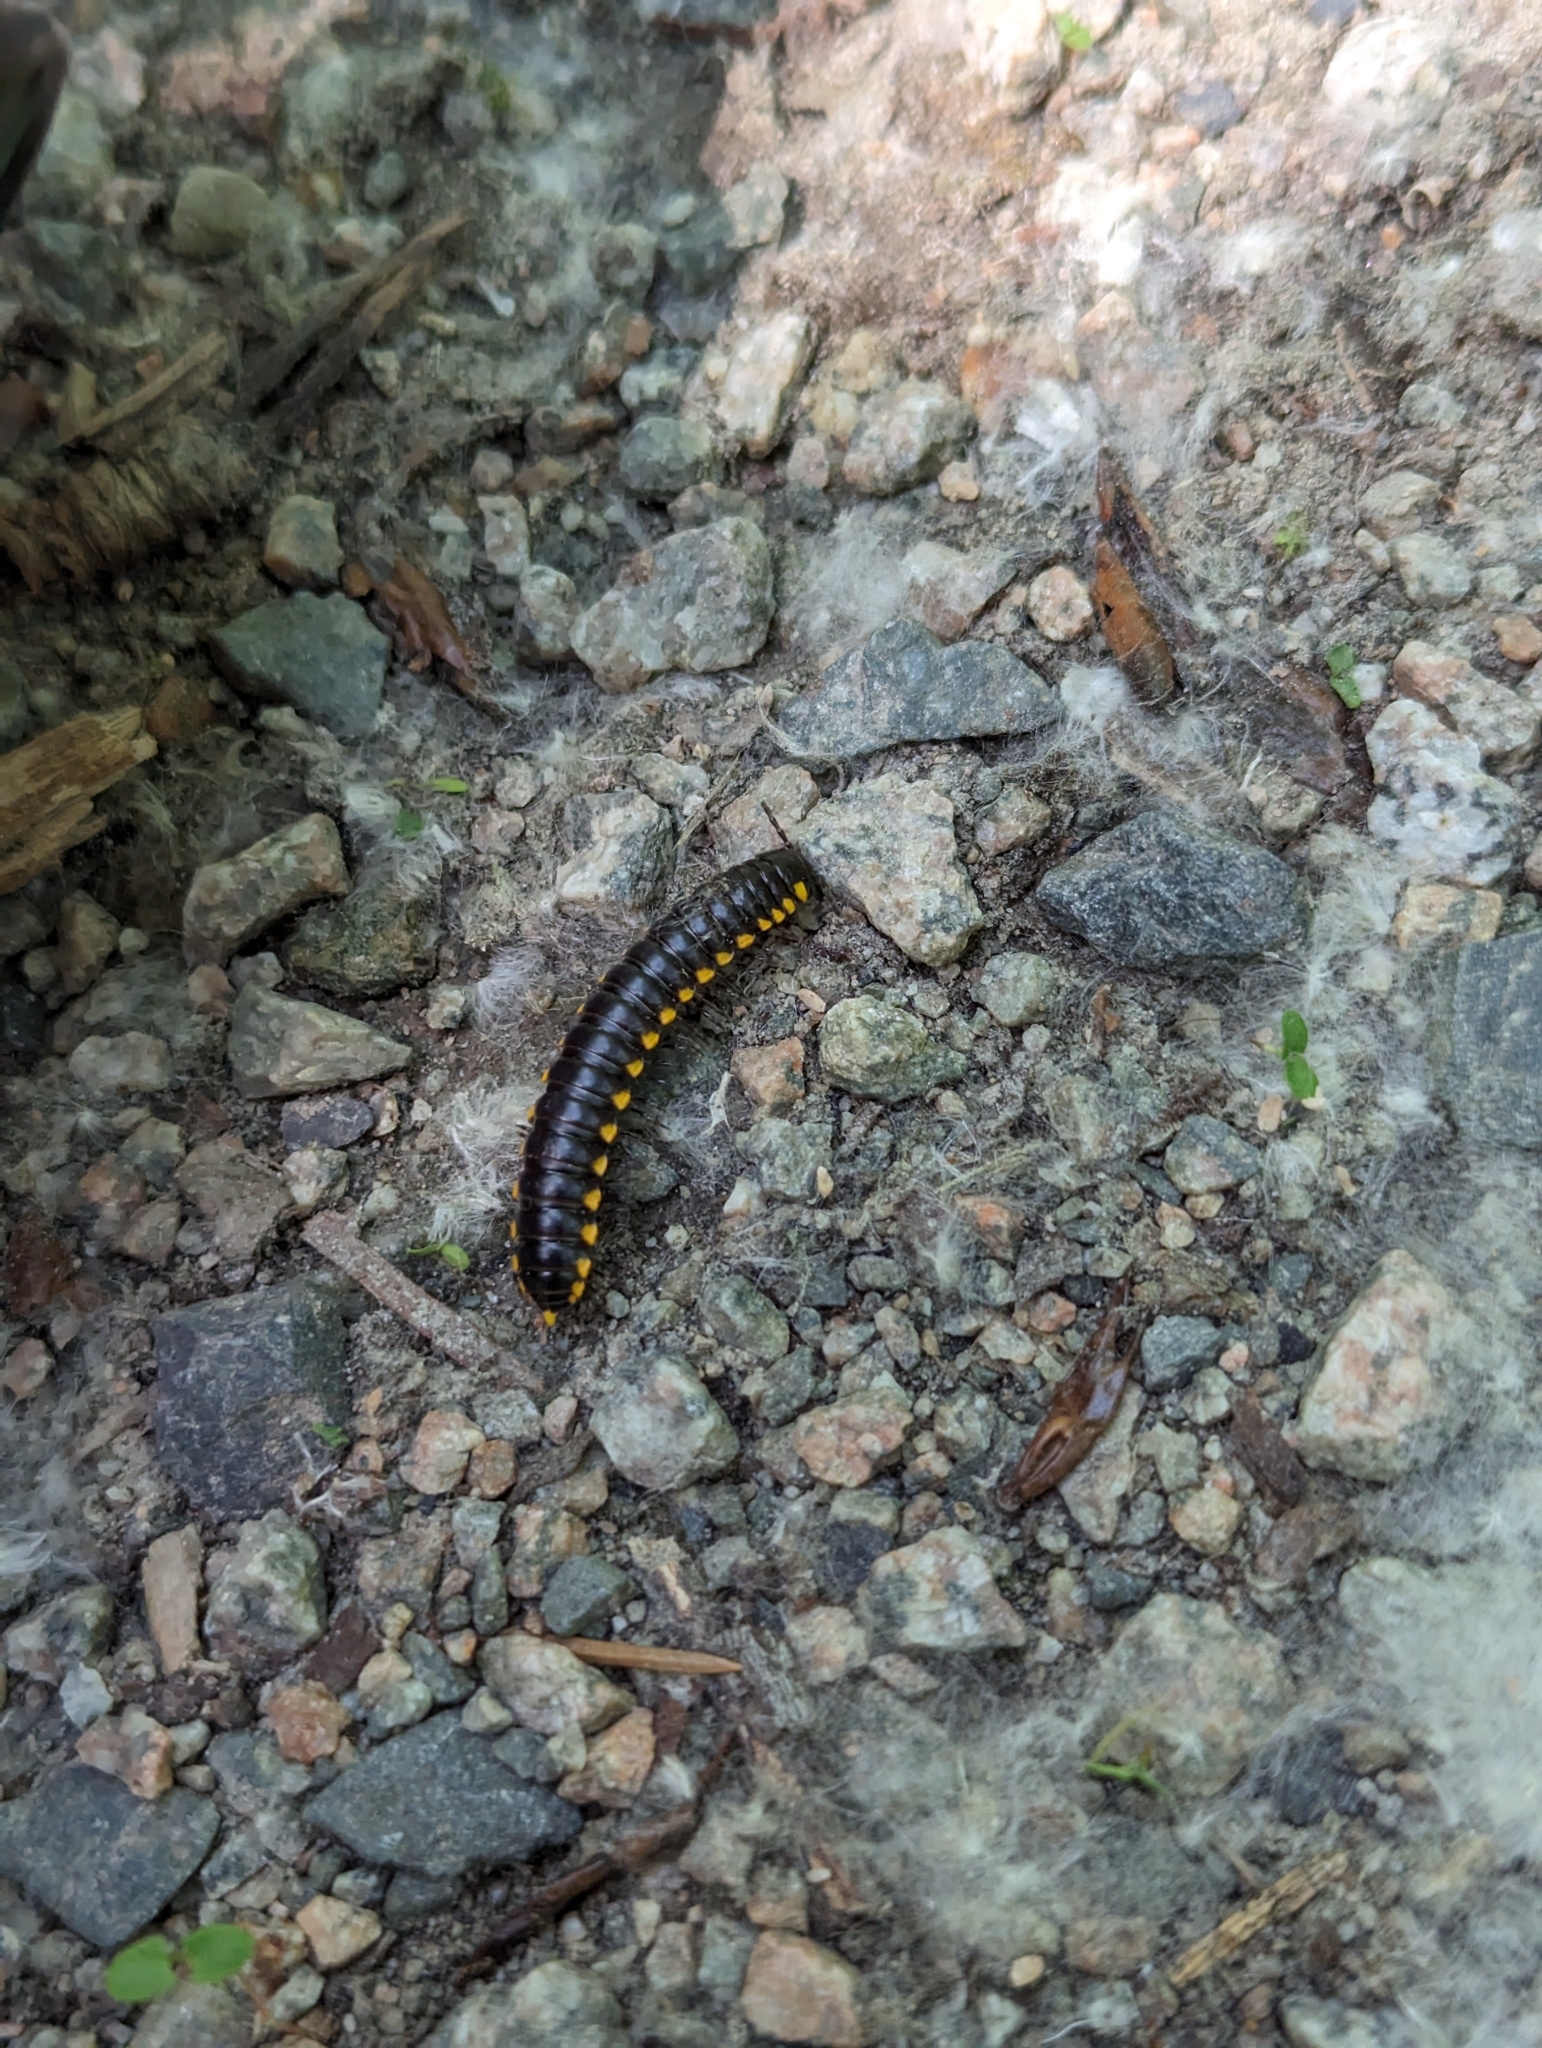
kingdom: Animalia
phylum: Arthropoda
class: Diplopoda
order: Polydesmida
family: Xystodesmidae
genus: Harpaphe
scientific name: Harpaphe haydeniana
